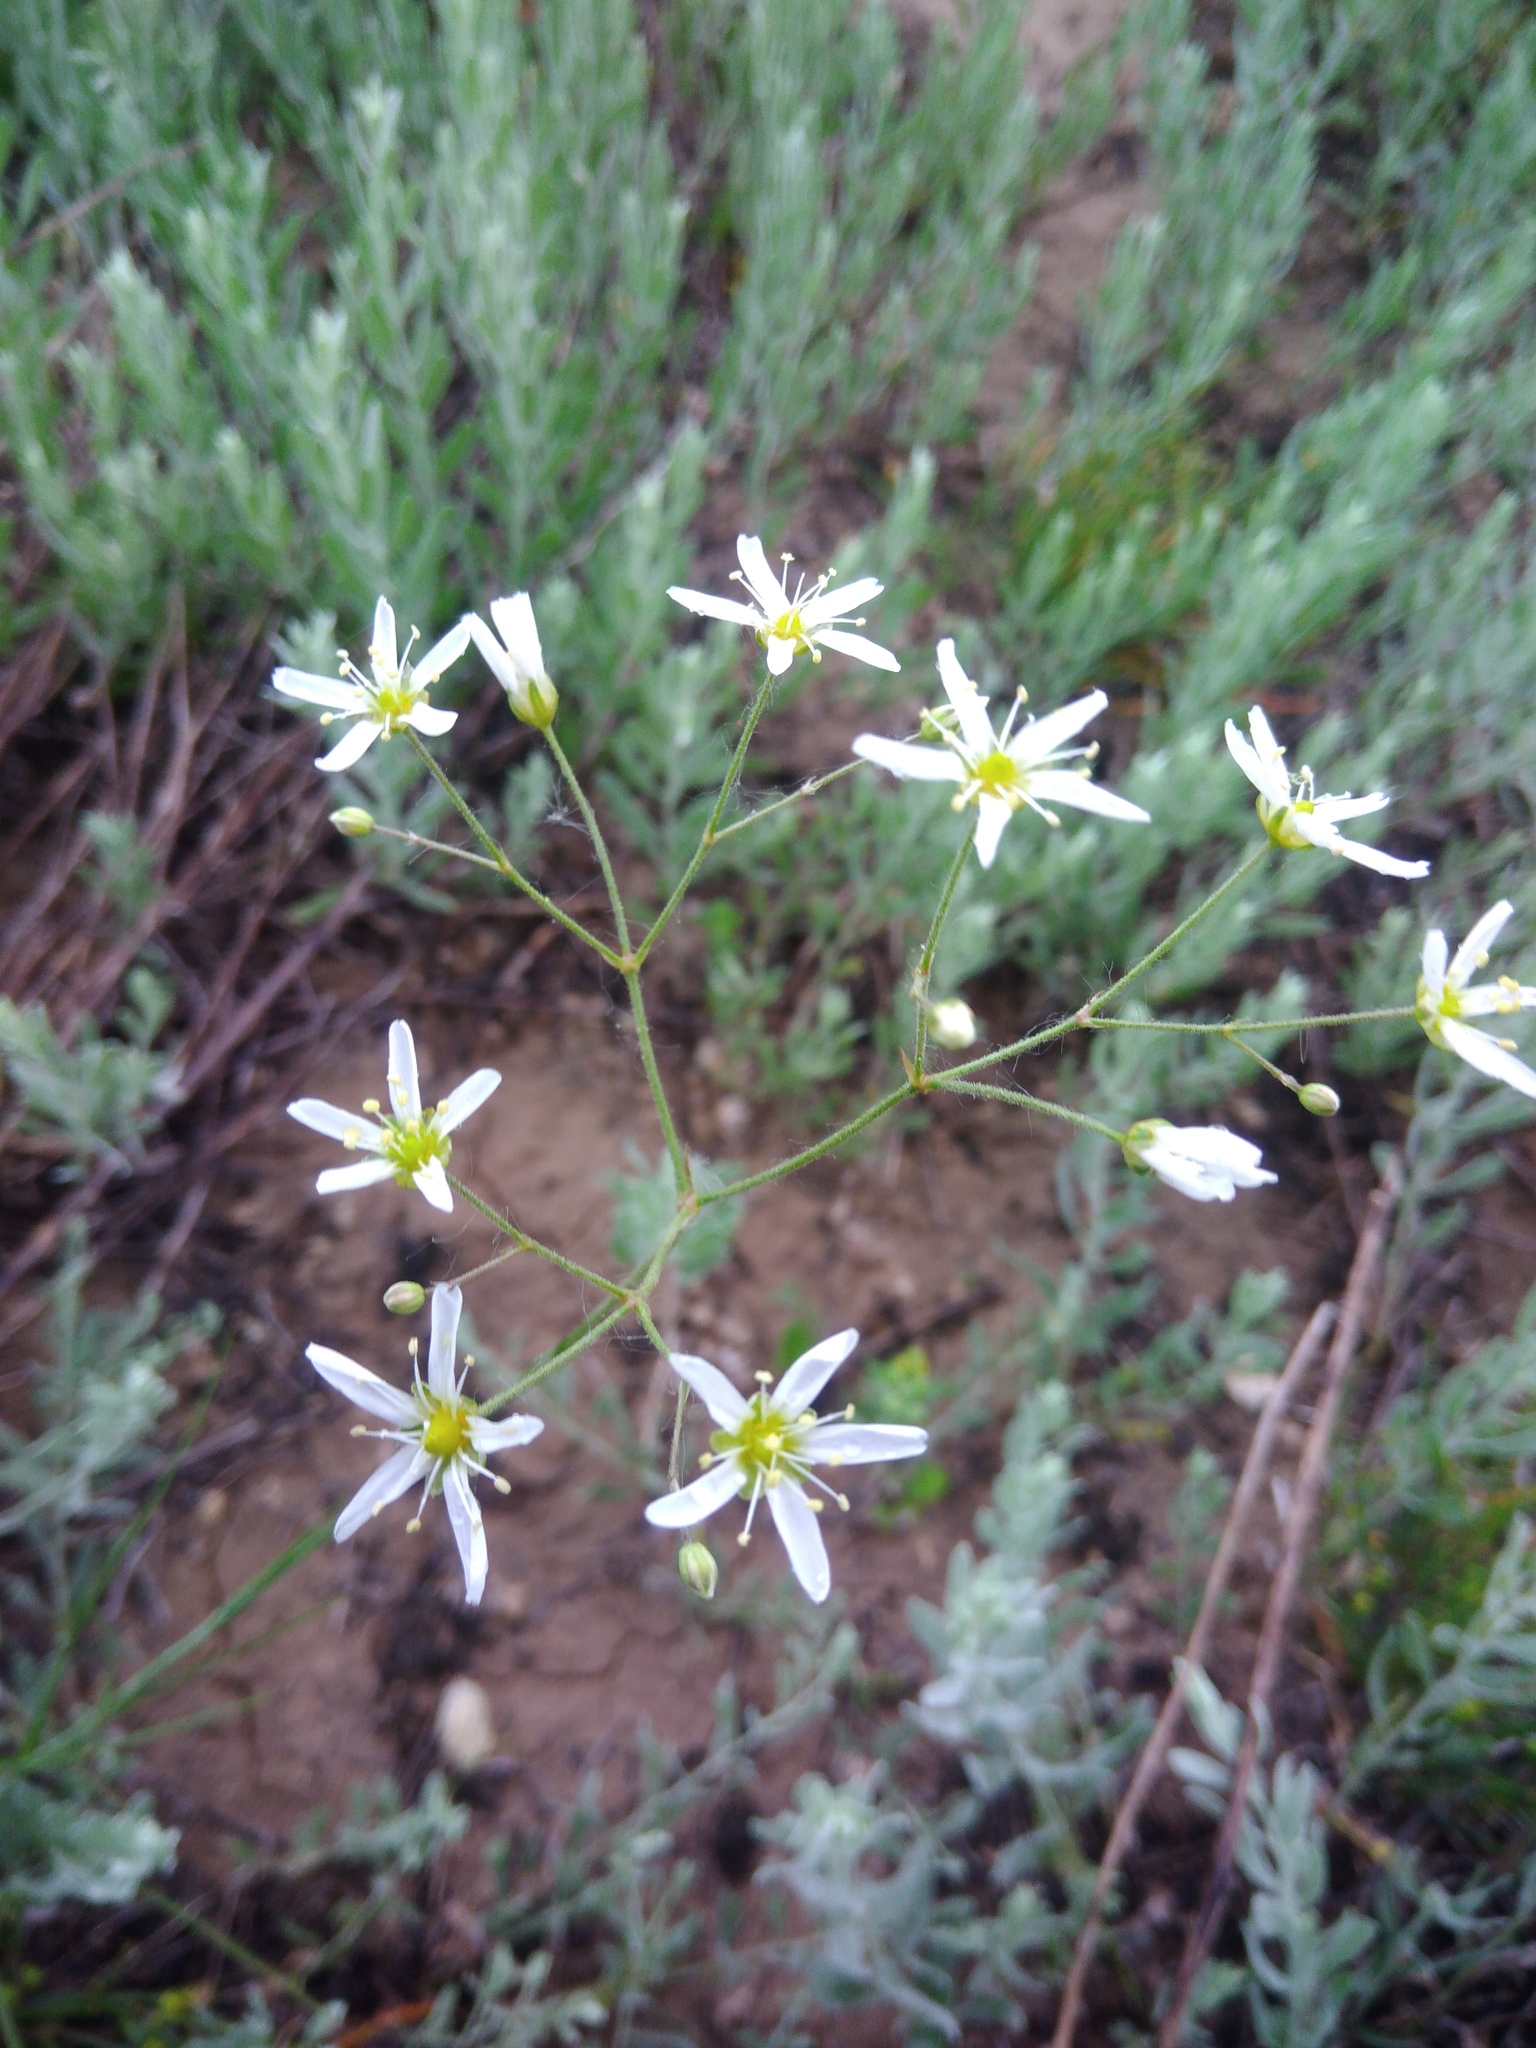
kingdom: Plantae
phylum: Tracheophyta
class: Magnoliopsida
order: Caryophyllales
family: Caryophyllaceae
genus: Eremogone
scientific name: Eremogone biebersteinii
